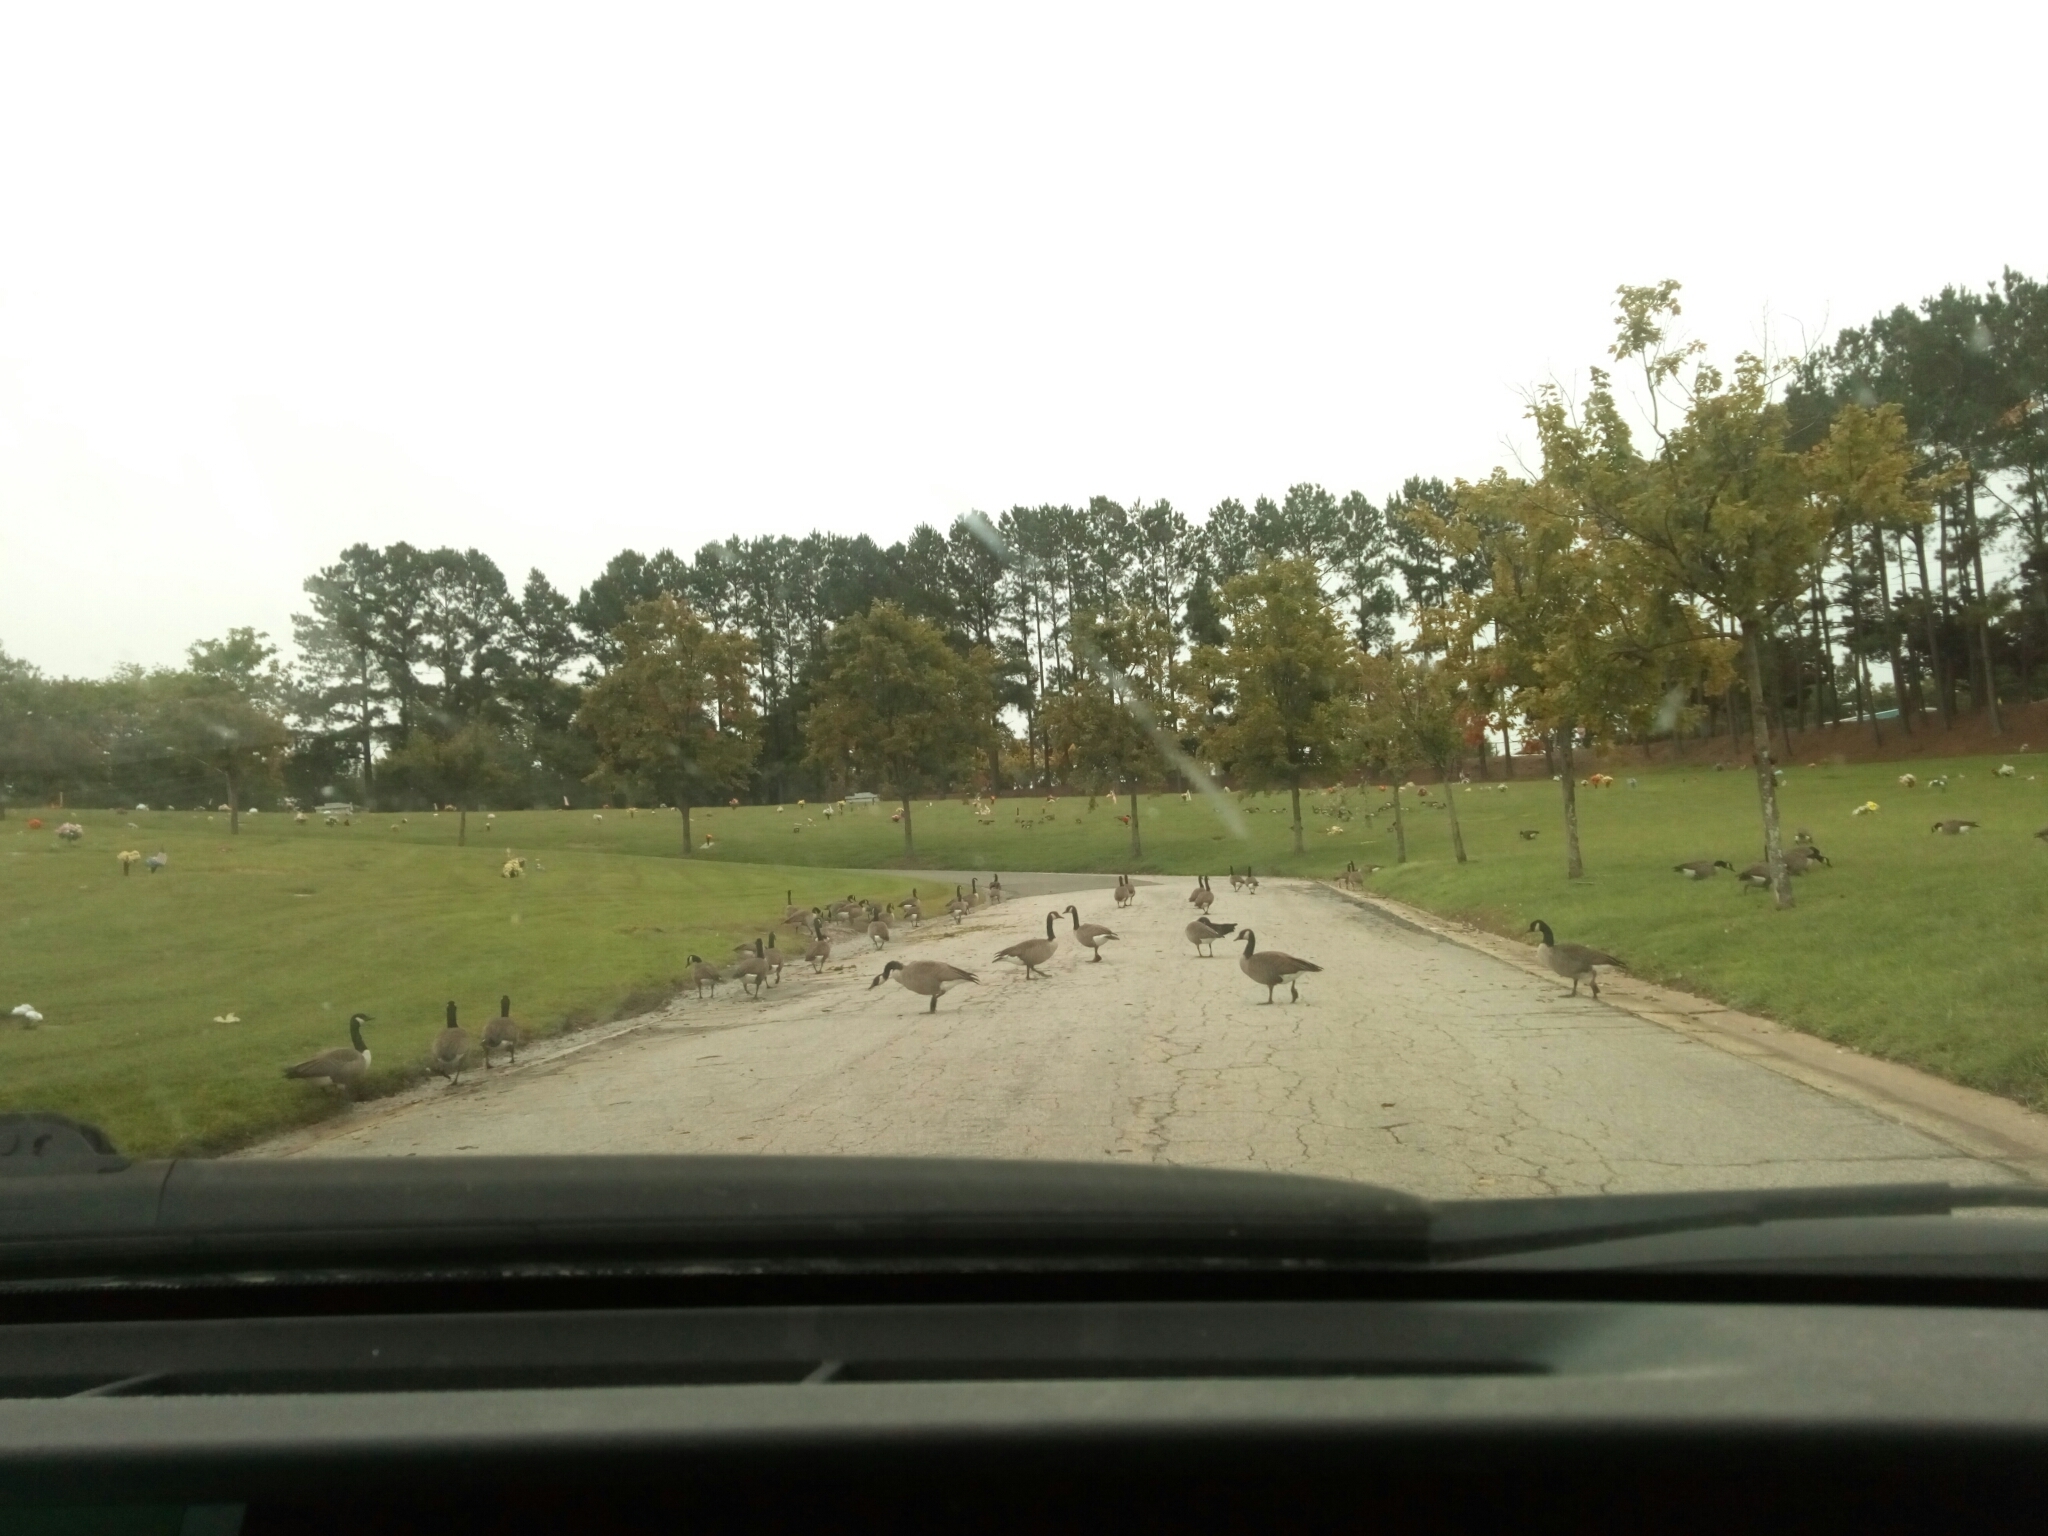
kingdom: Animalia
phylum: Chordata
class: Aves
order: Anseriformes
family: Anatidae
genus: Branta
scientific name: Branta canadensis
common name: Canada goose
